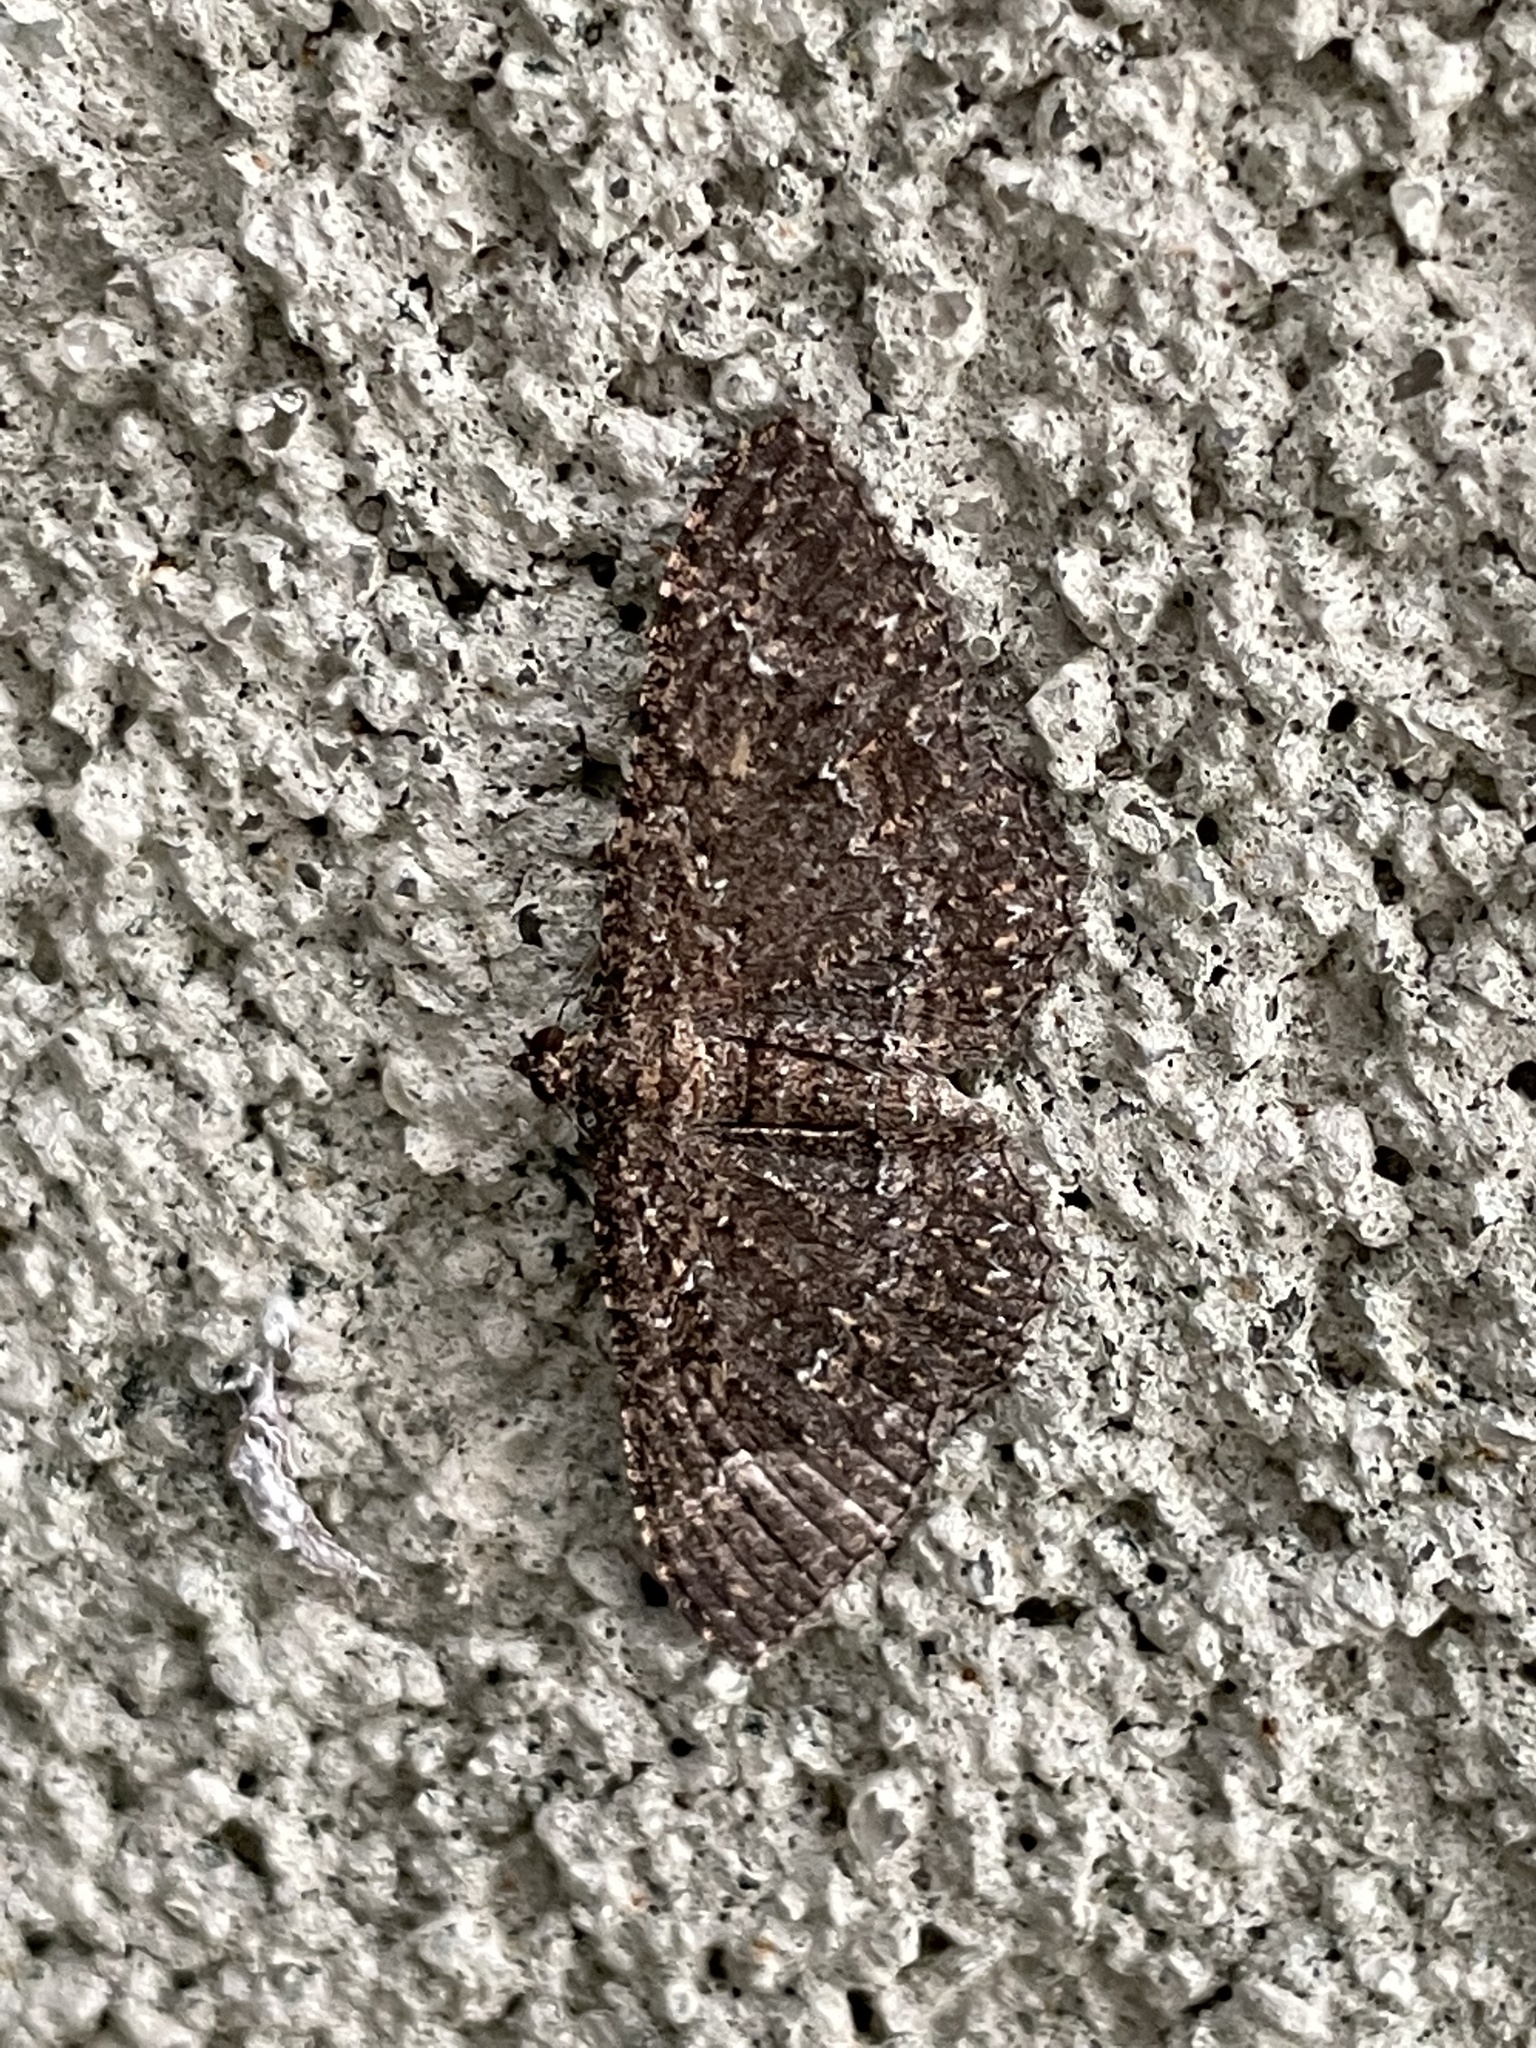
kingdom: Animalia
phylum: Arthropoda
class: Insecta
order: Lepidoptera
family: Geometridae
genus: Disclisioprocta
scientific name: Disclisioprocta stellata
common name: Somber carpet
